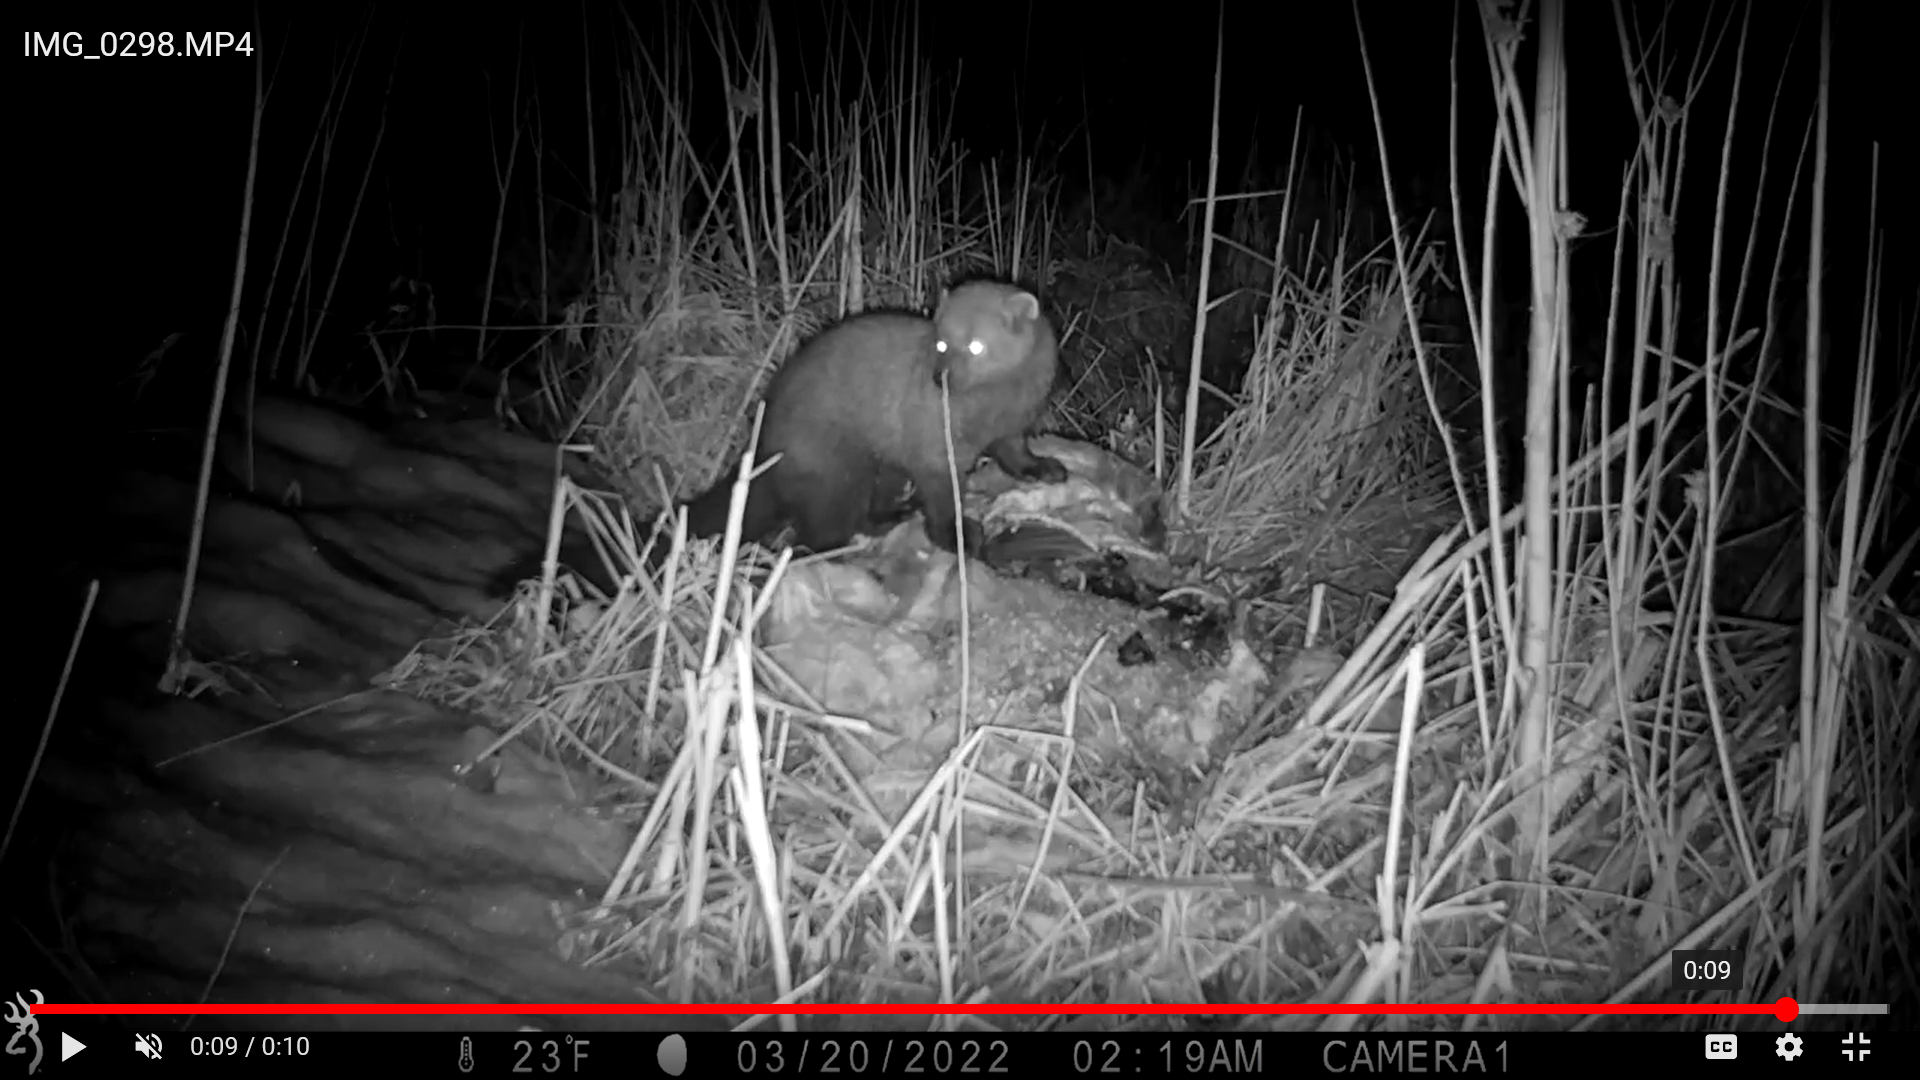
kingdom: Animalia
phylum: Chordata
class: Mammalia
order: Carnivora
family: Mustelidae
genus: Pekania
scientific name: Pekania pennanti
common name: Fisher
